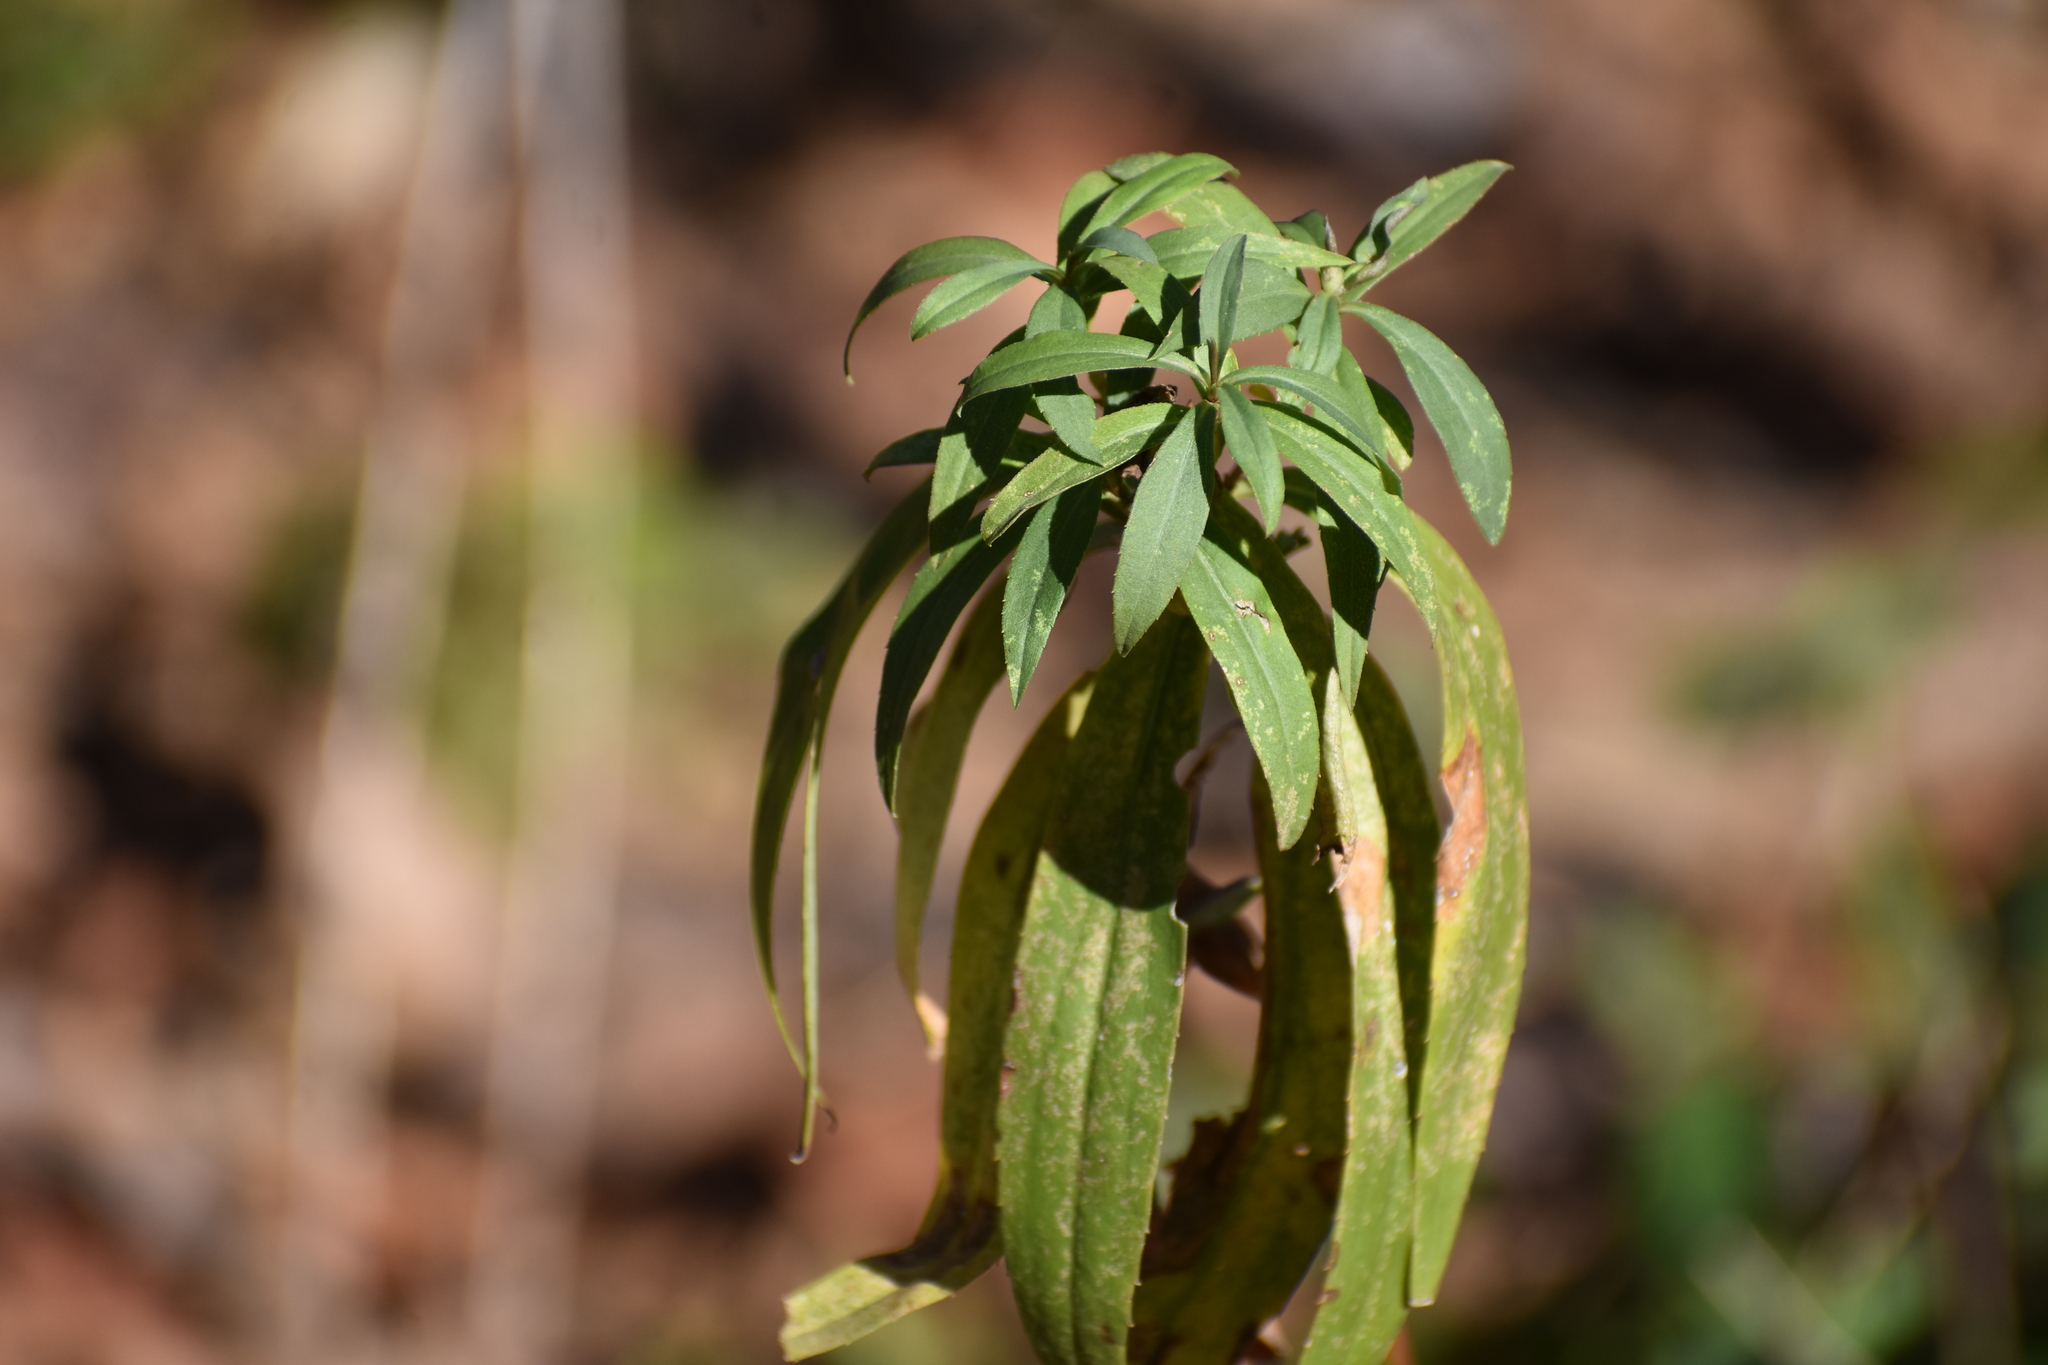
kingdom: Plantae
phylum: Tracheophyta
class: Magnoliopsida
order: Asterales
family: Asteraceae
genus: Helianthus
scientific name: Helianthus maximiliani
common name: Maximilian's sunflower
